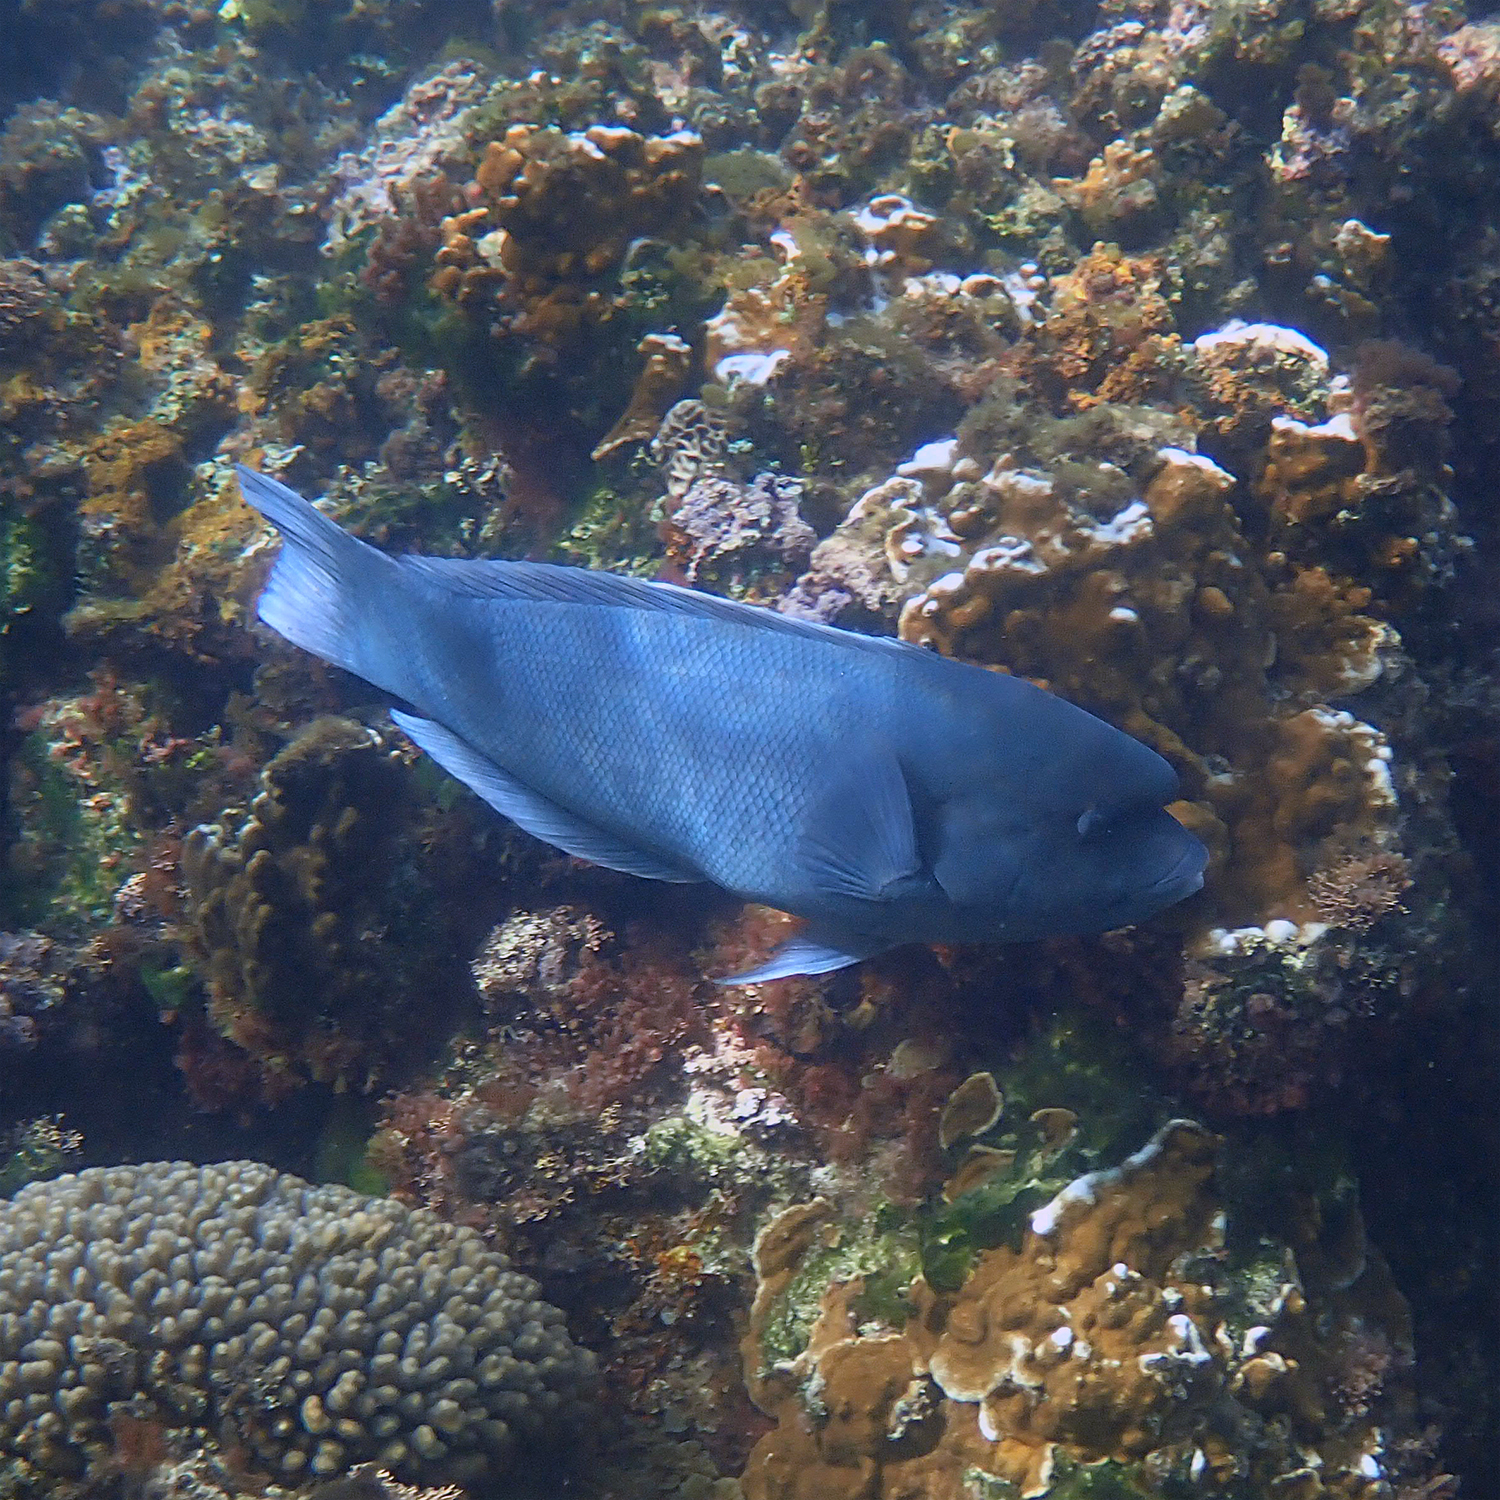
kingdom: Animalia
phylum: Chordata
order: Perciformes
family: Labridae
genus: Coris
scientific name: Coris bulbifrons
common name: Doubleheader
